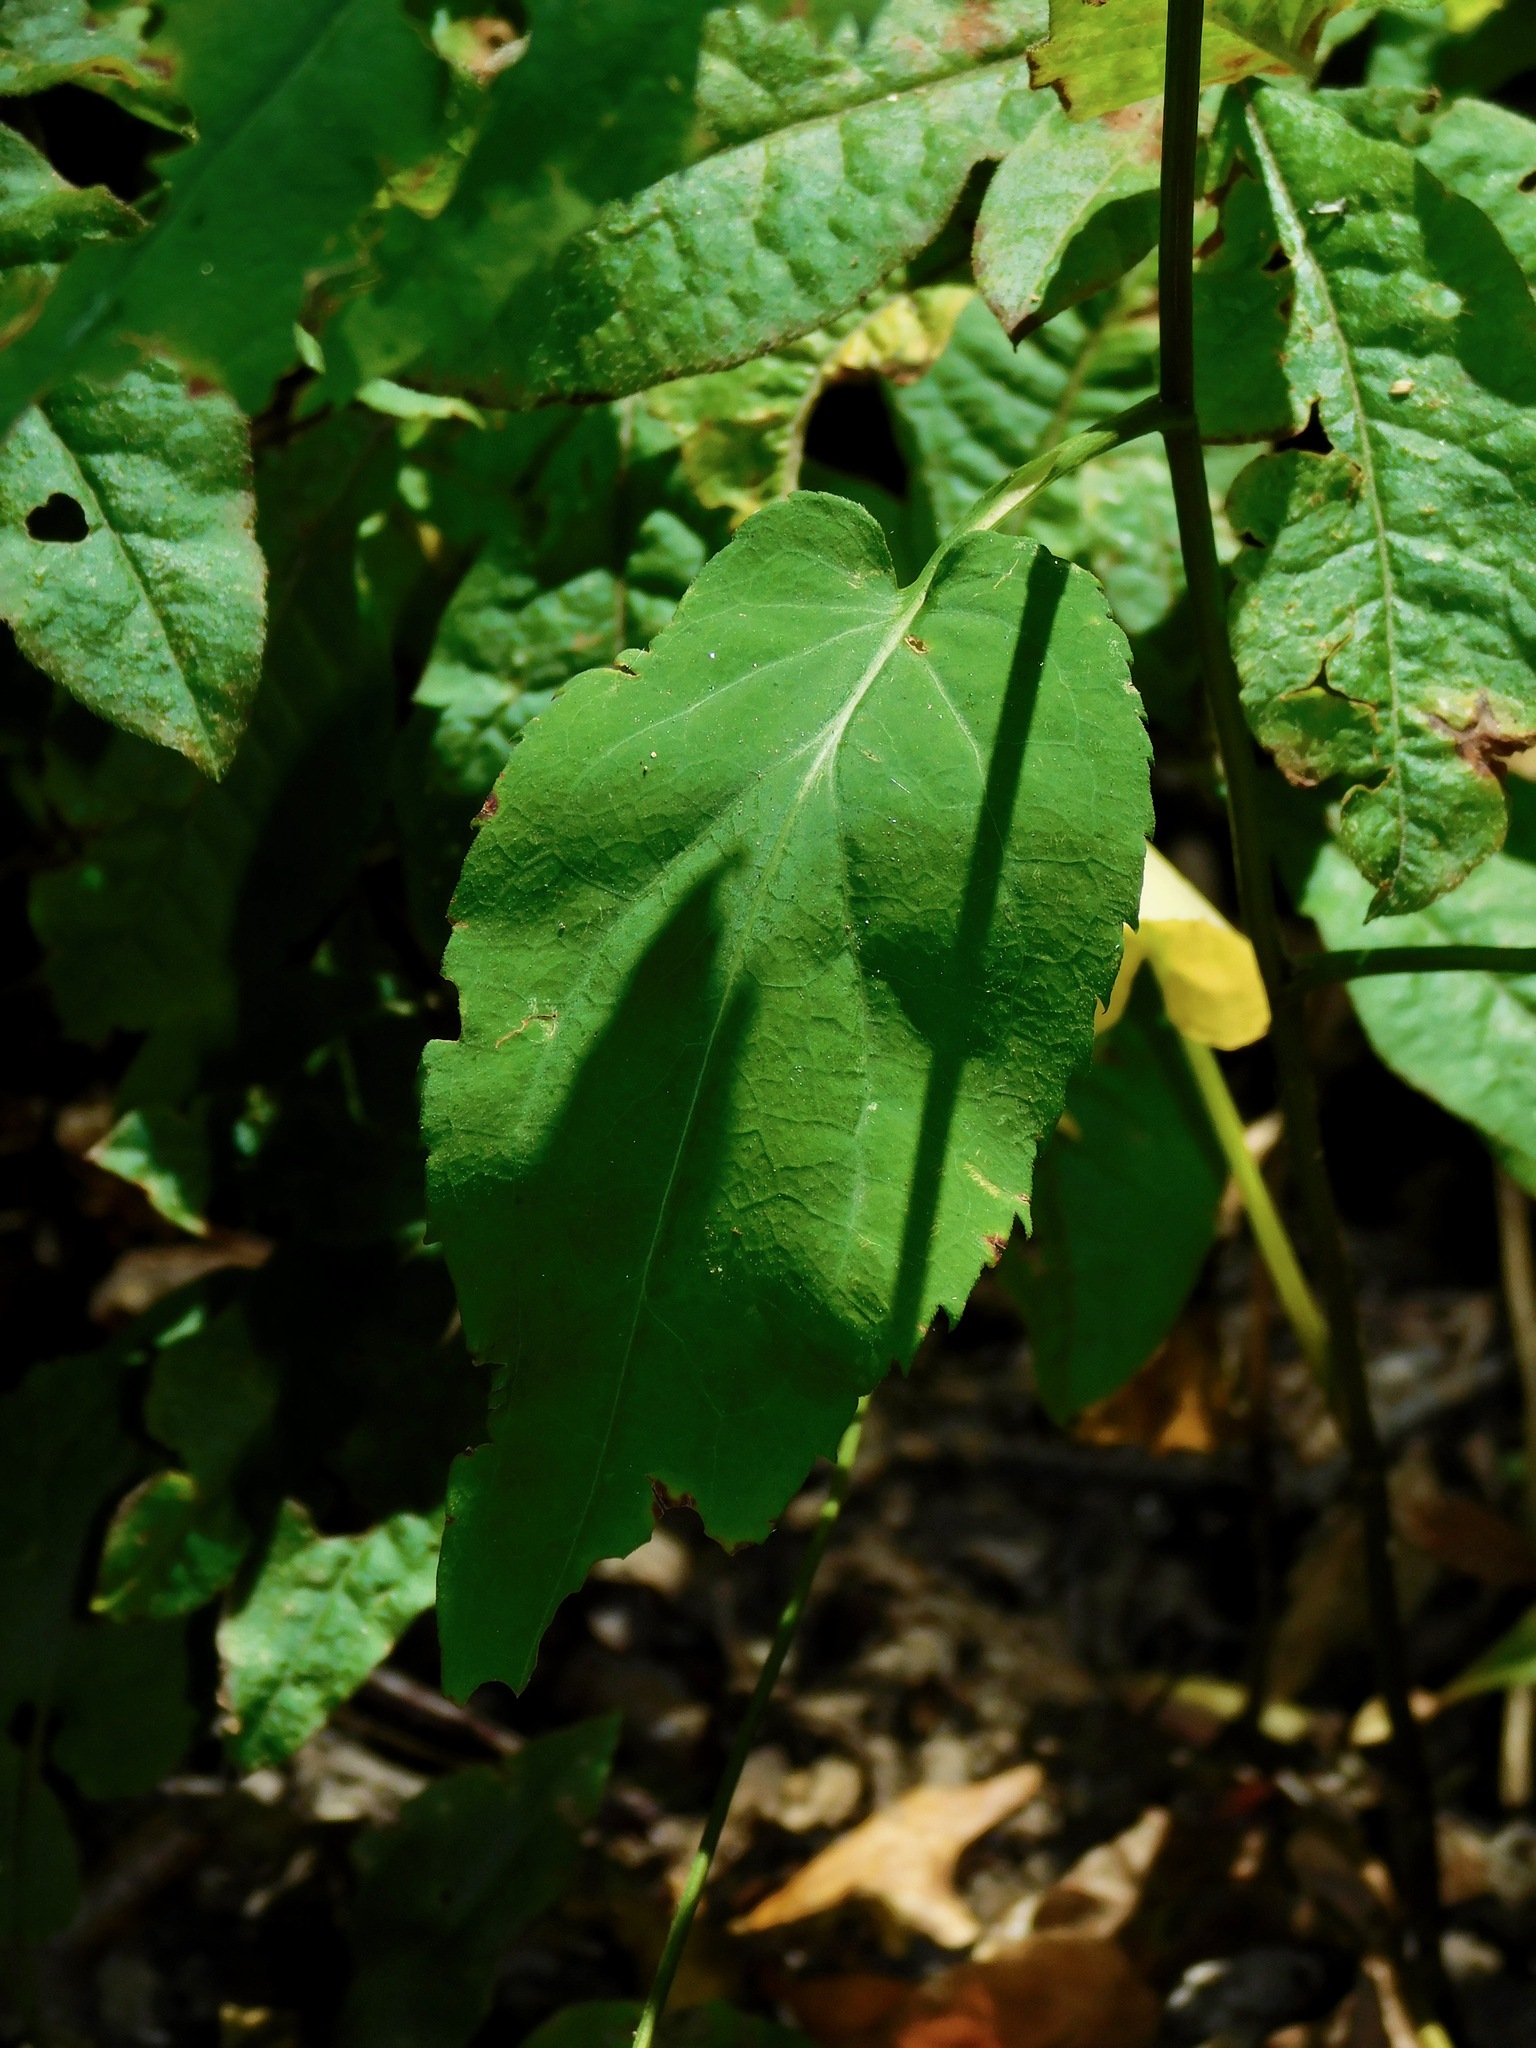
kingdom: Plantae
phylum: Tracheophyta
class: Magnoliopsida
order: Asterales
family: Asteraceae
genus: Symphyotrichum
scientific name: Symphyotrichum cordifolium
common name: Beeweed
